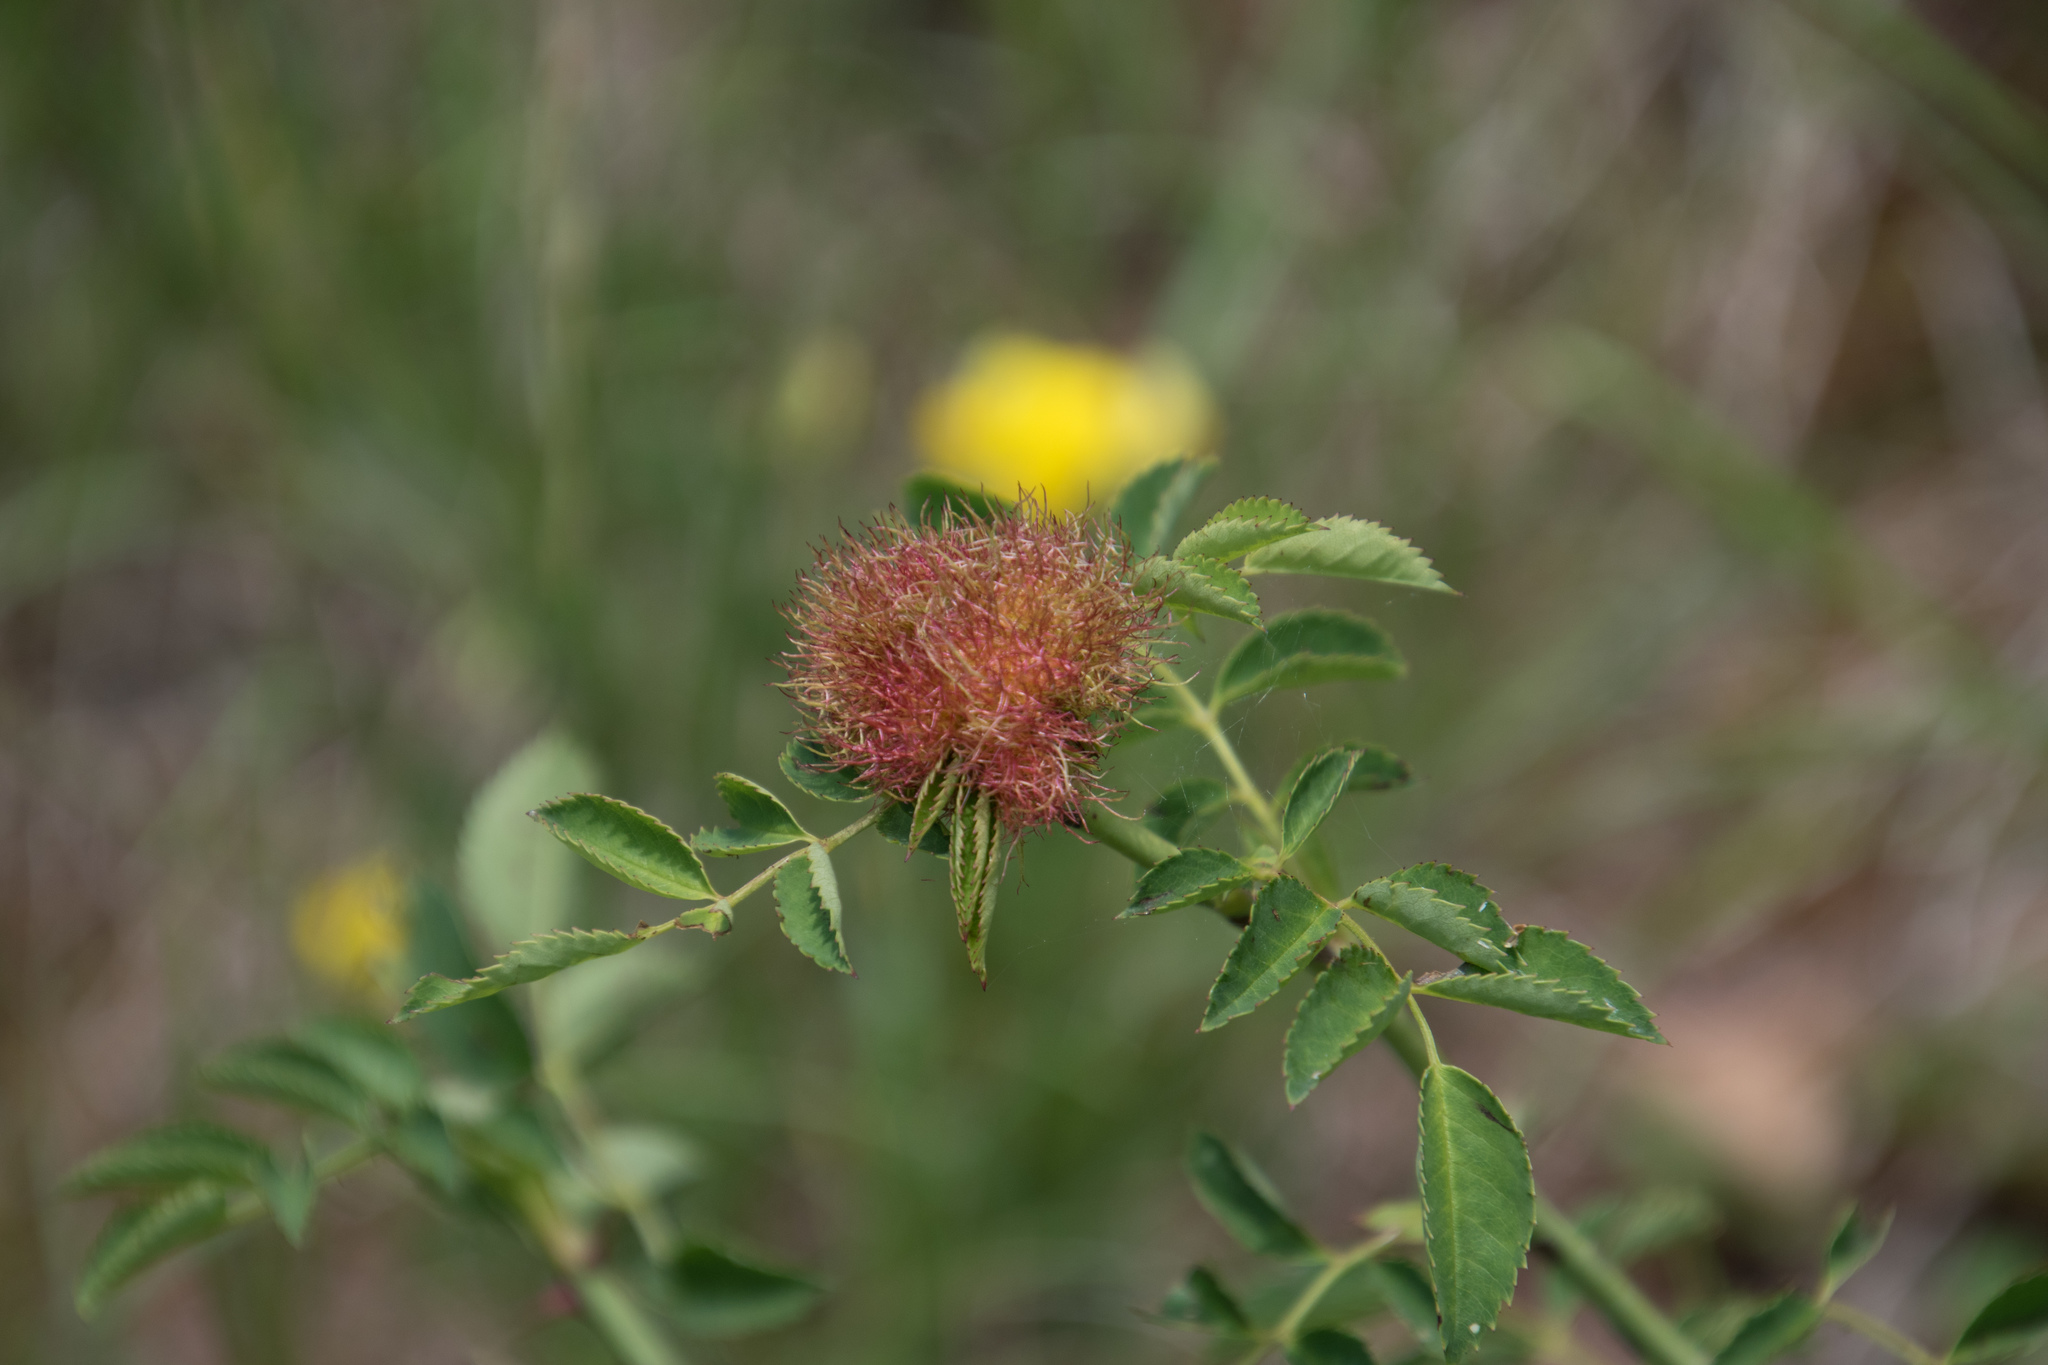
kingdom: Animalia
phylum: Arthropoda
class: Insecta
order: Hymenoptera
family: Cynipidae
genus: Diplolepis
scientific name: Diplolepis rosae
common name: Bedeguar gall
